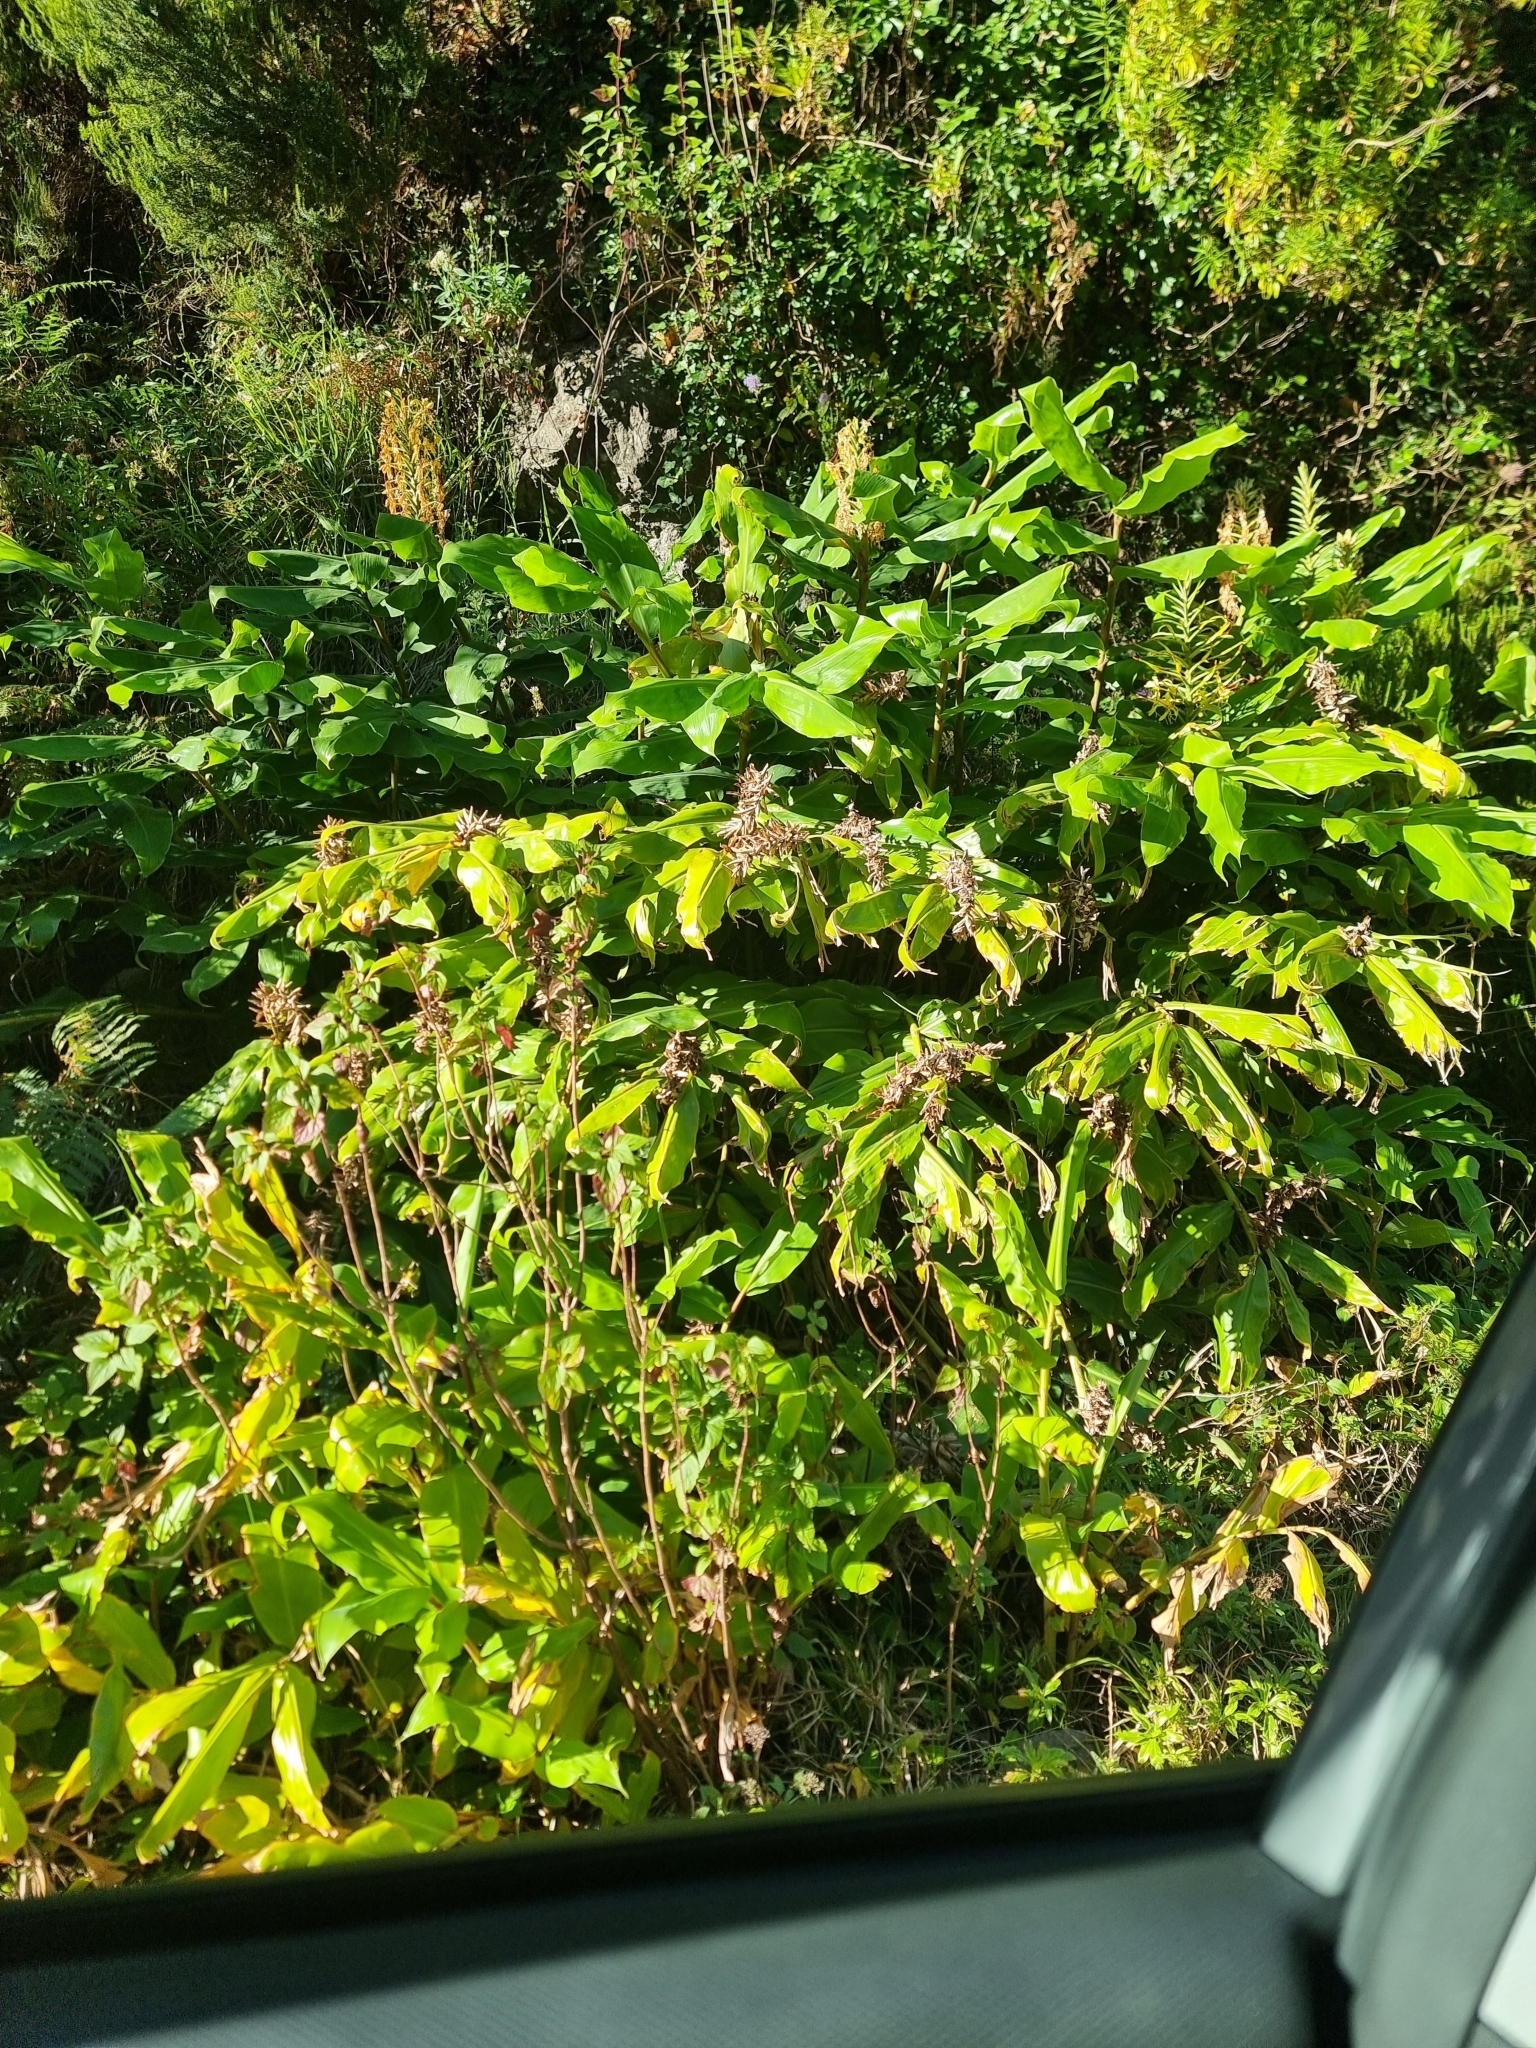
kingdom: Plantae
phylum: Tracheophyta
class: Liliopsida
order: Zingiberales
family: Zingiberaceae
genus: Hedychium
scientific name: Hedychium gardnerianum
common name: Himalayan ginger
